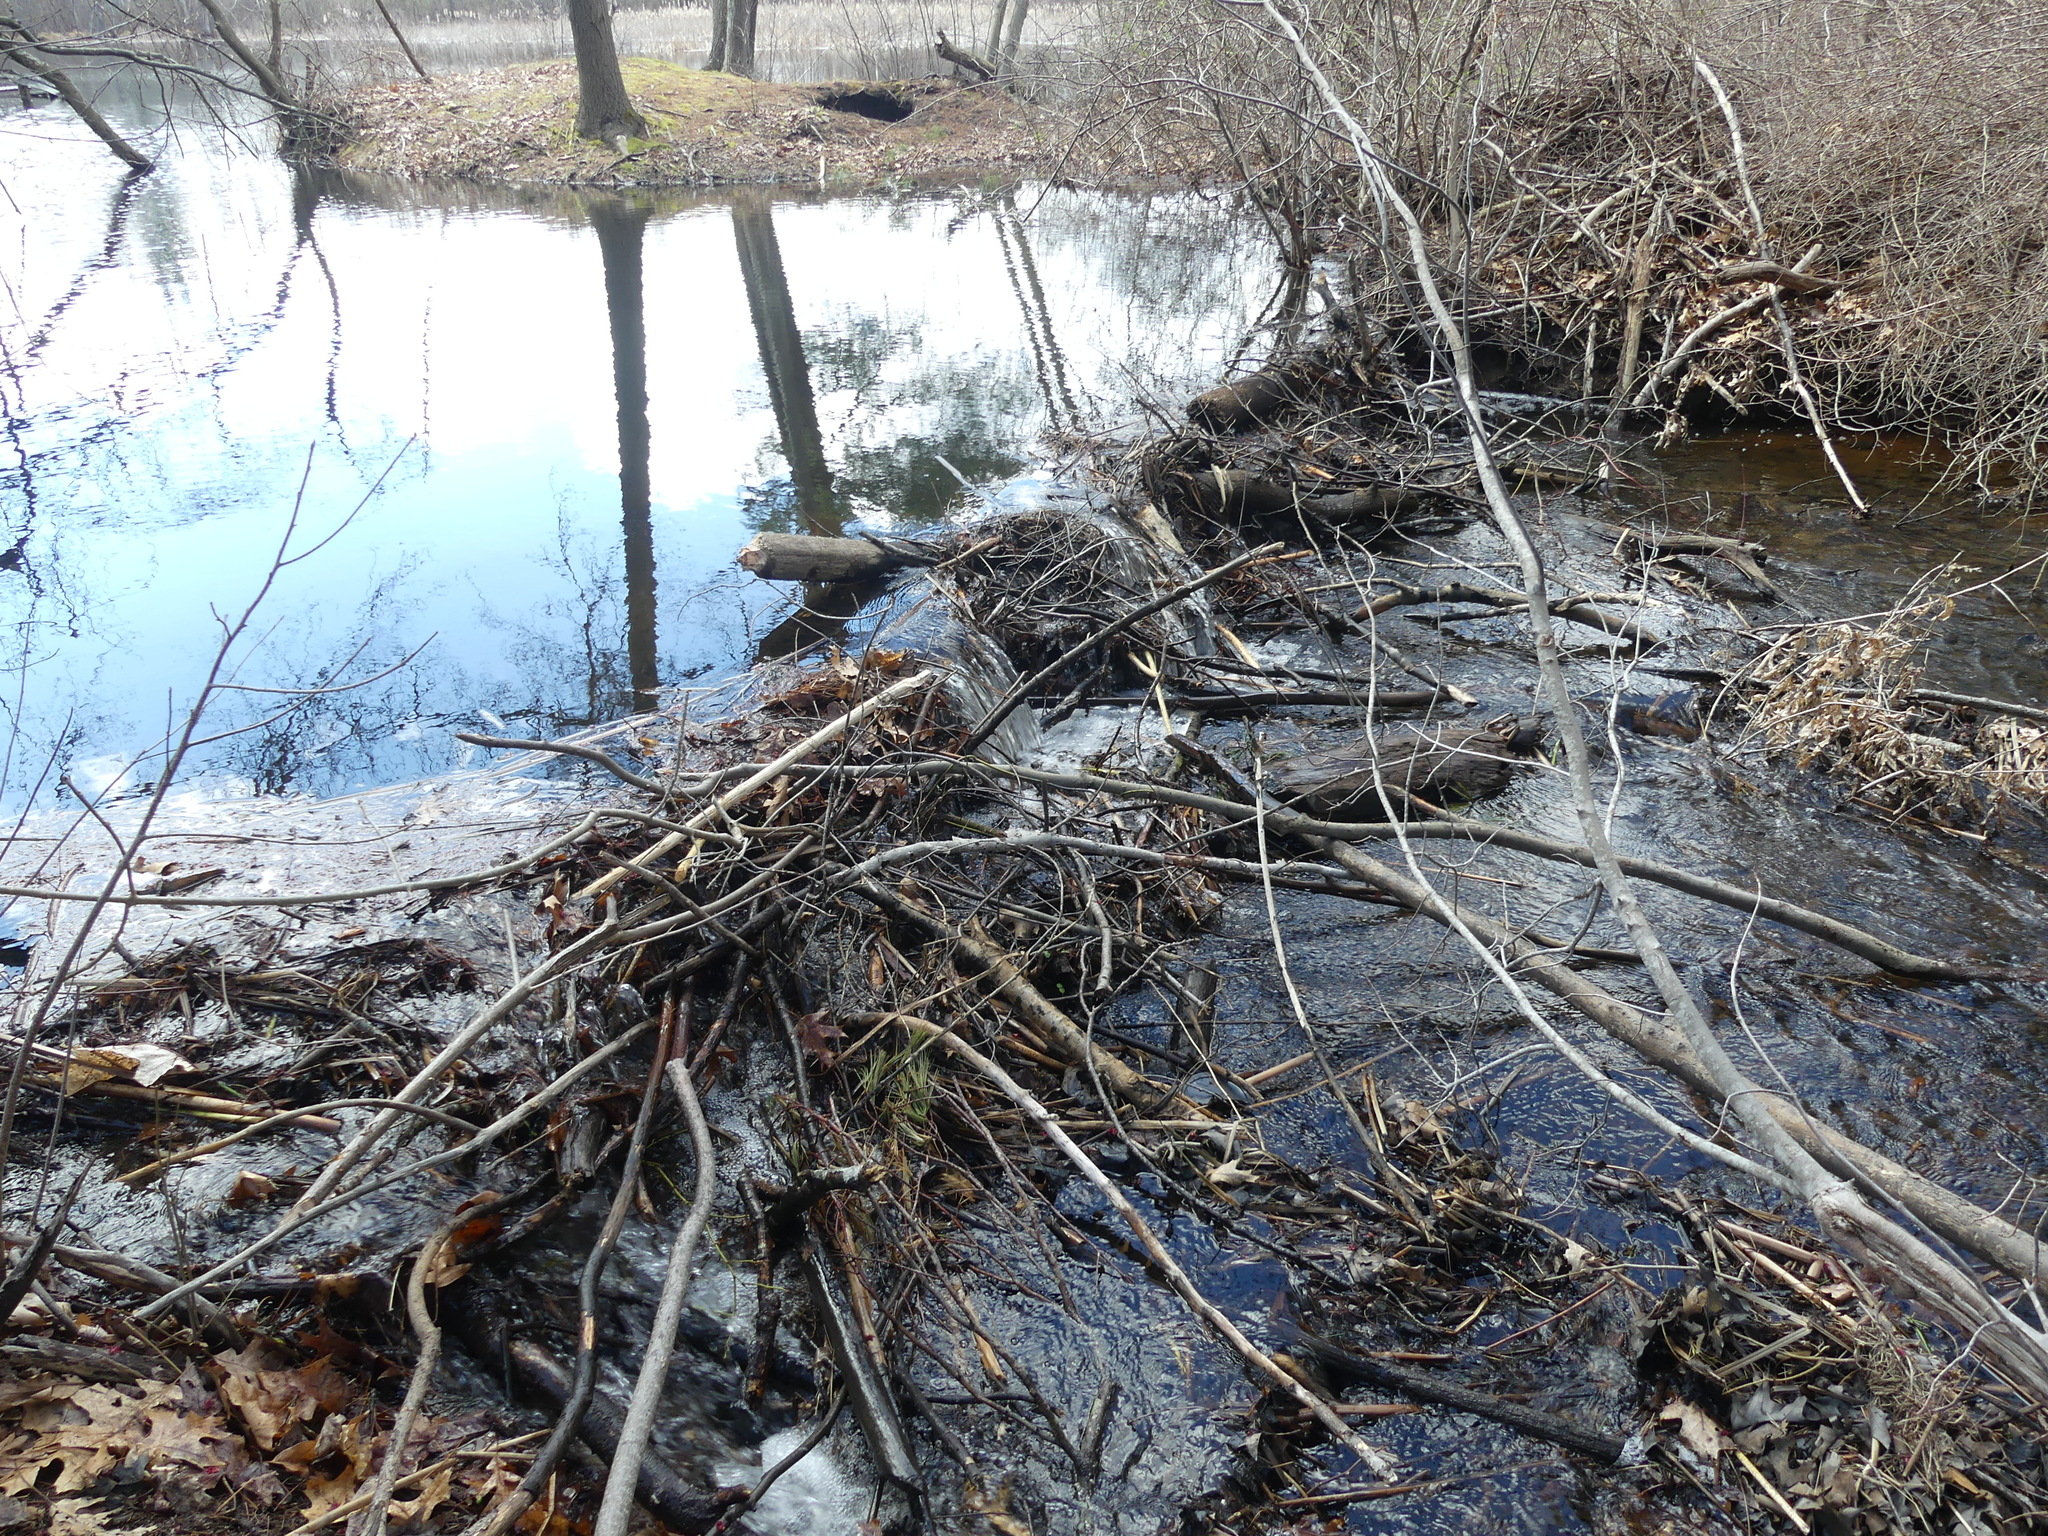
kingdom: Animalia
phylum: Chordata
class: Mammalia
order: Rodentia
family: Castoridae
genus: Castor
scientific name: Castor canadensis
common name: American beaver
